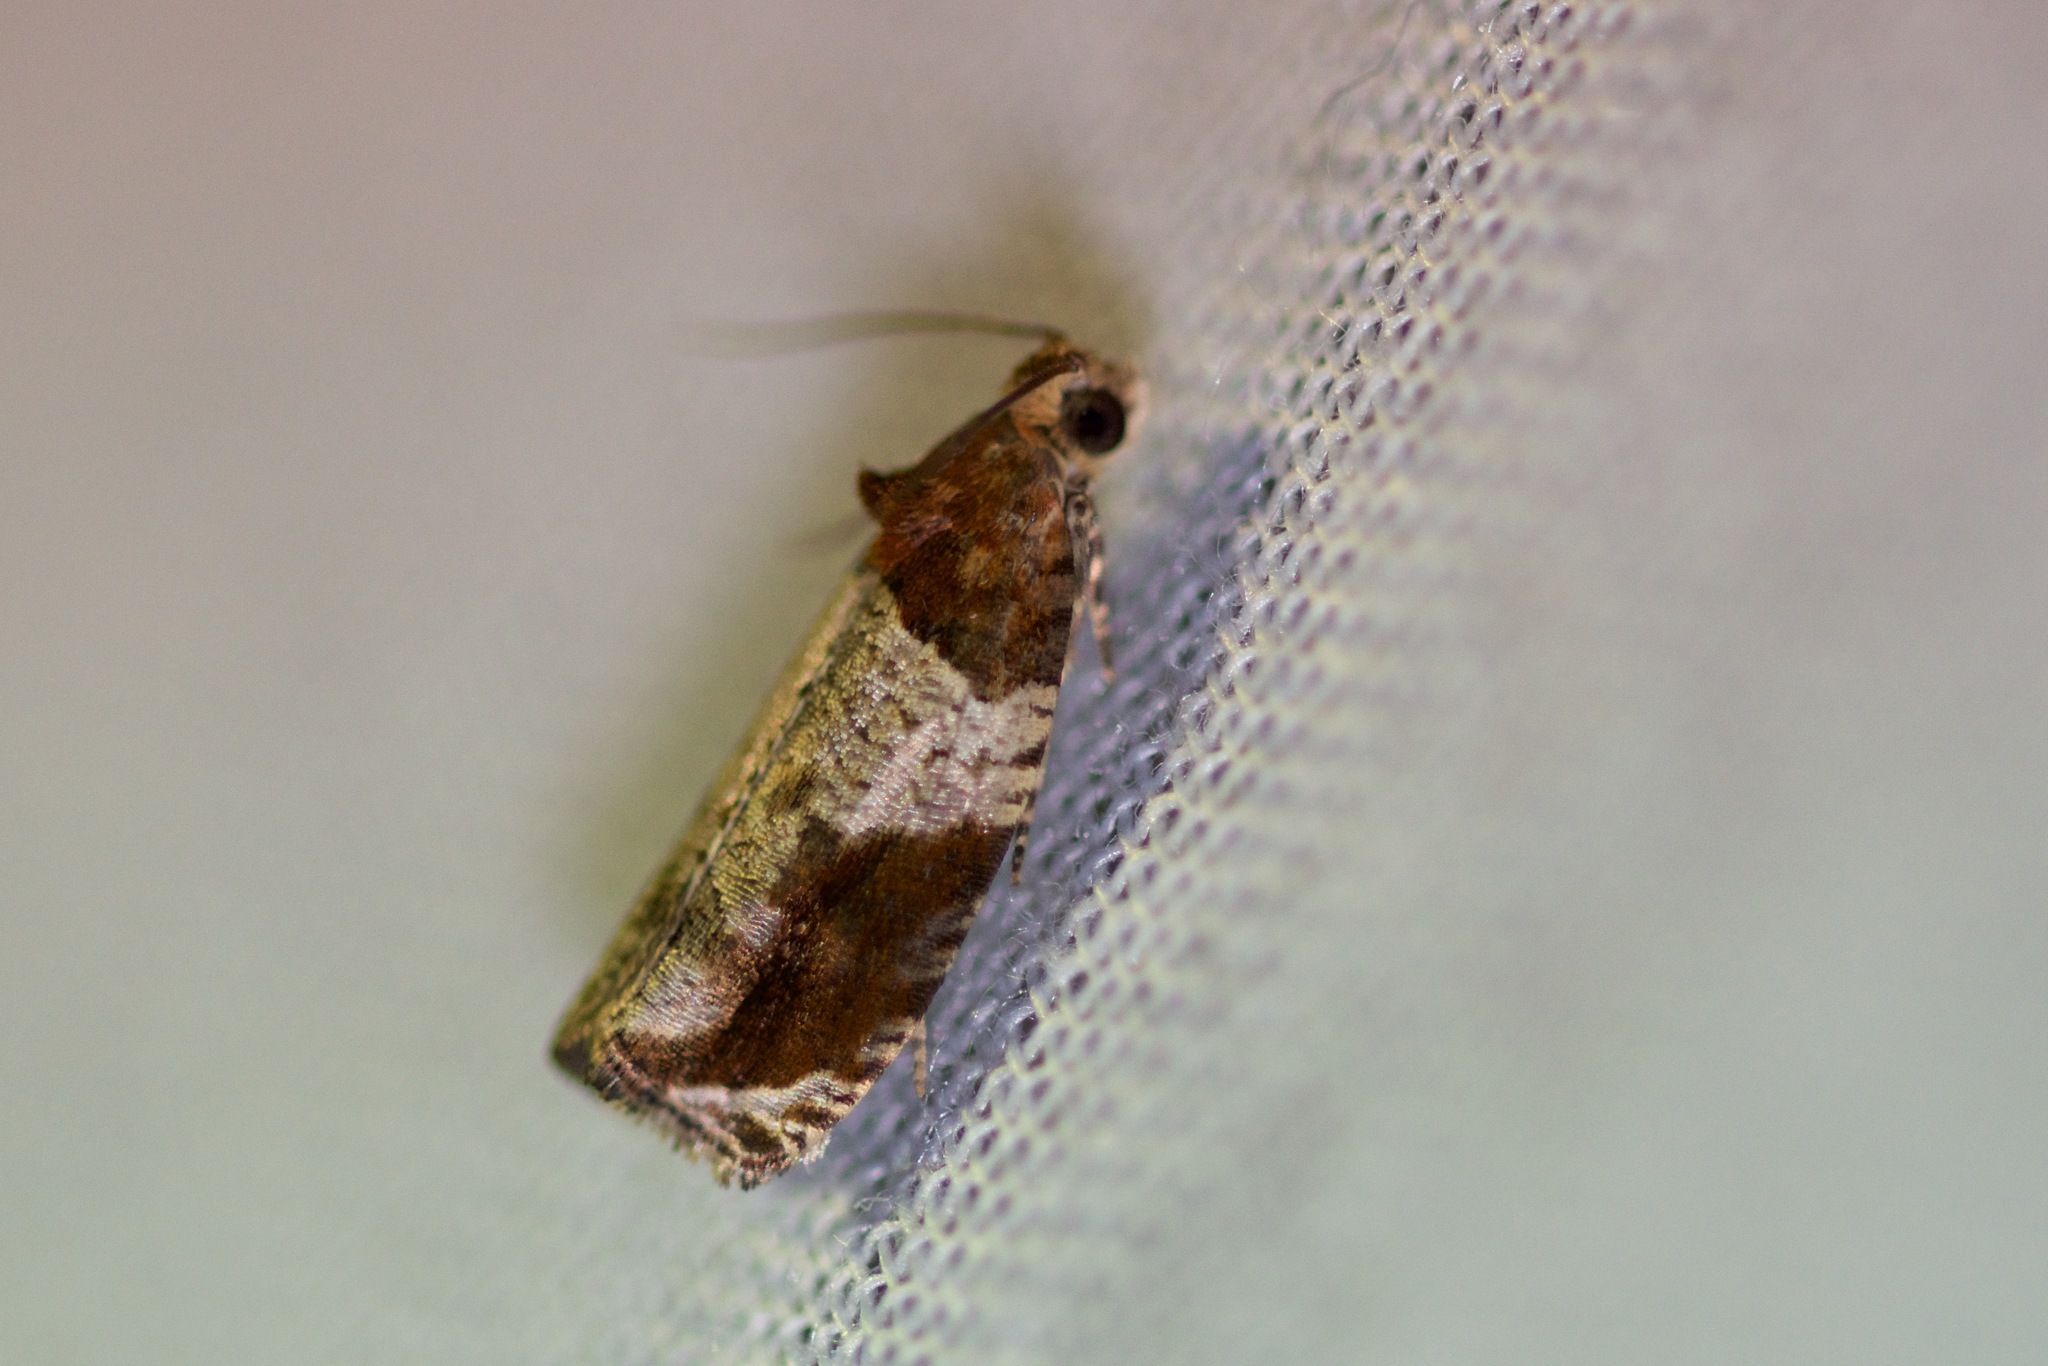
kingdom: Animalia
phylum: Arthropoda
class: Insecta
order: Lepidoptera
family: Tortricidae
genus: Olethreutes
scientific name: Olethreutes ferriferana
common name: Hydrangea leaftier moth
